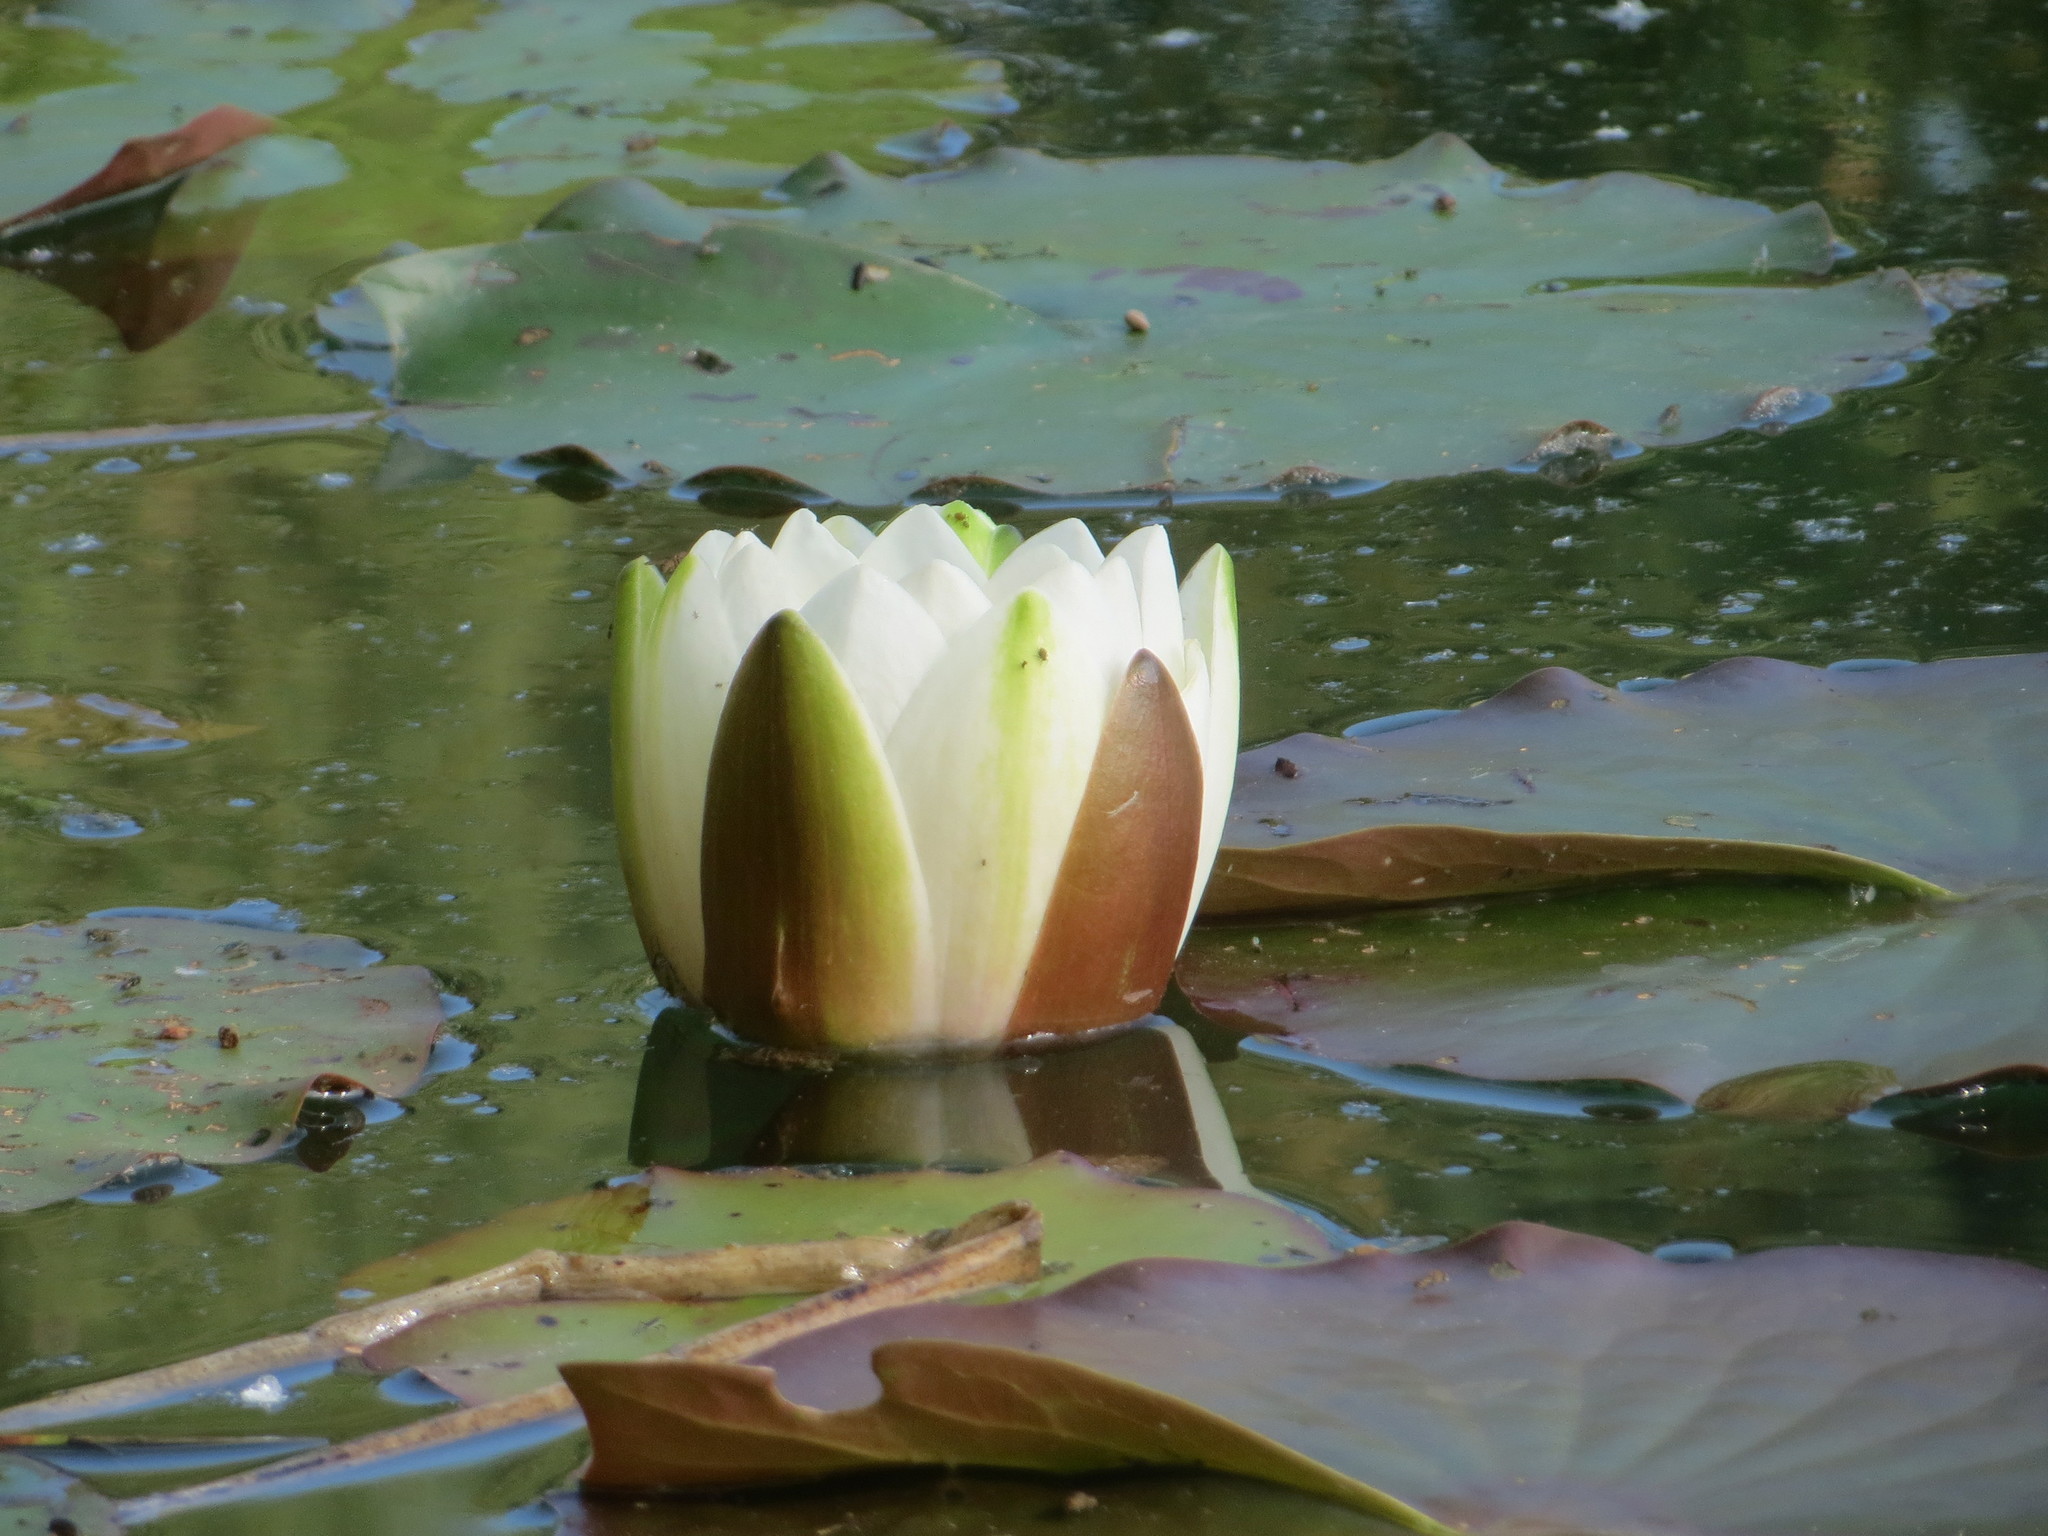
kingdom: Plantae
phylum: Tracheophyta
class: Magnoliopsida
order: Nymphaeales
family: Nymphaeaceae
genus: Nymphaea
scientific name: Nymphaea alba
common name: White water-lily
